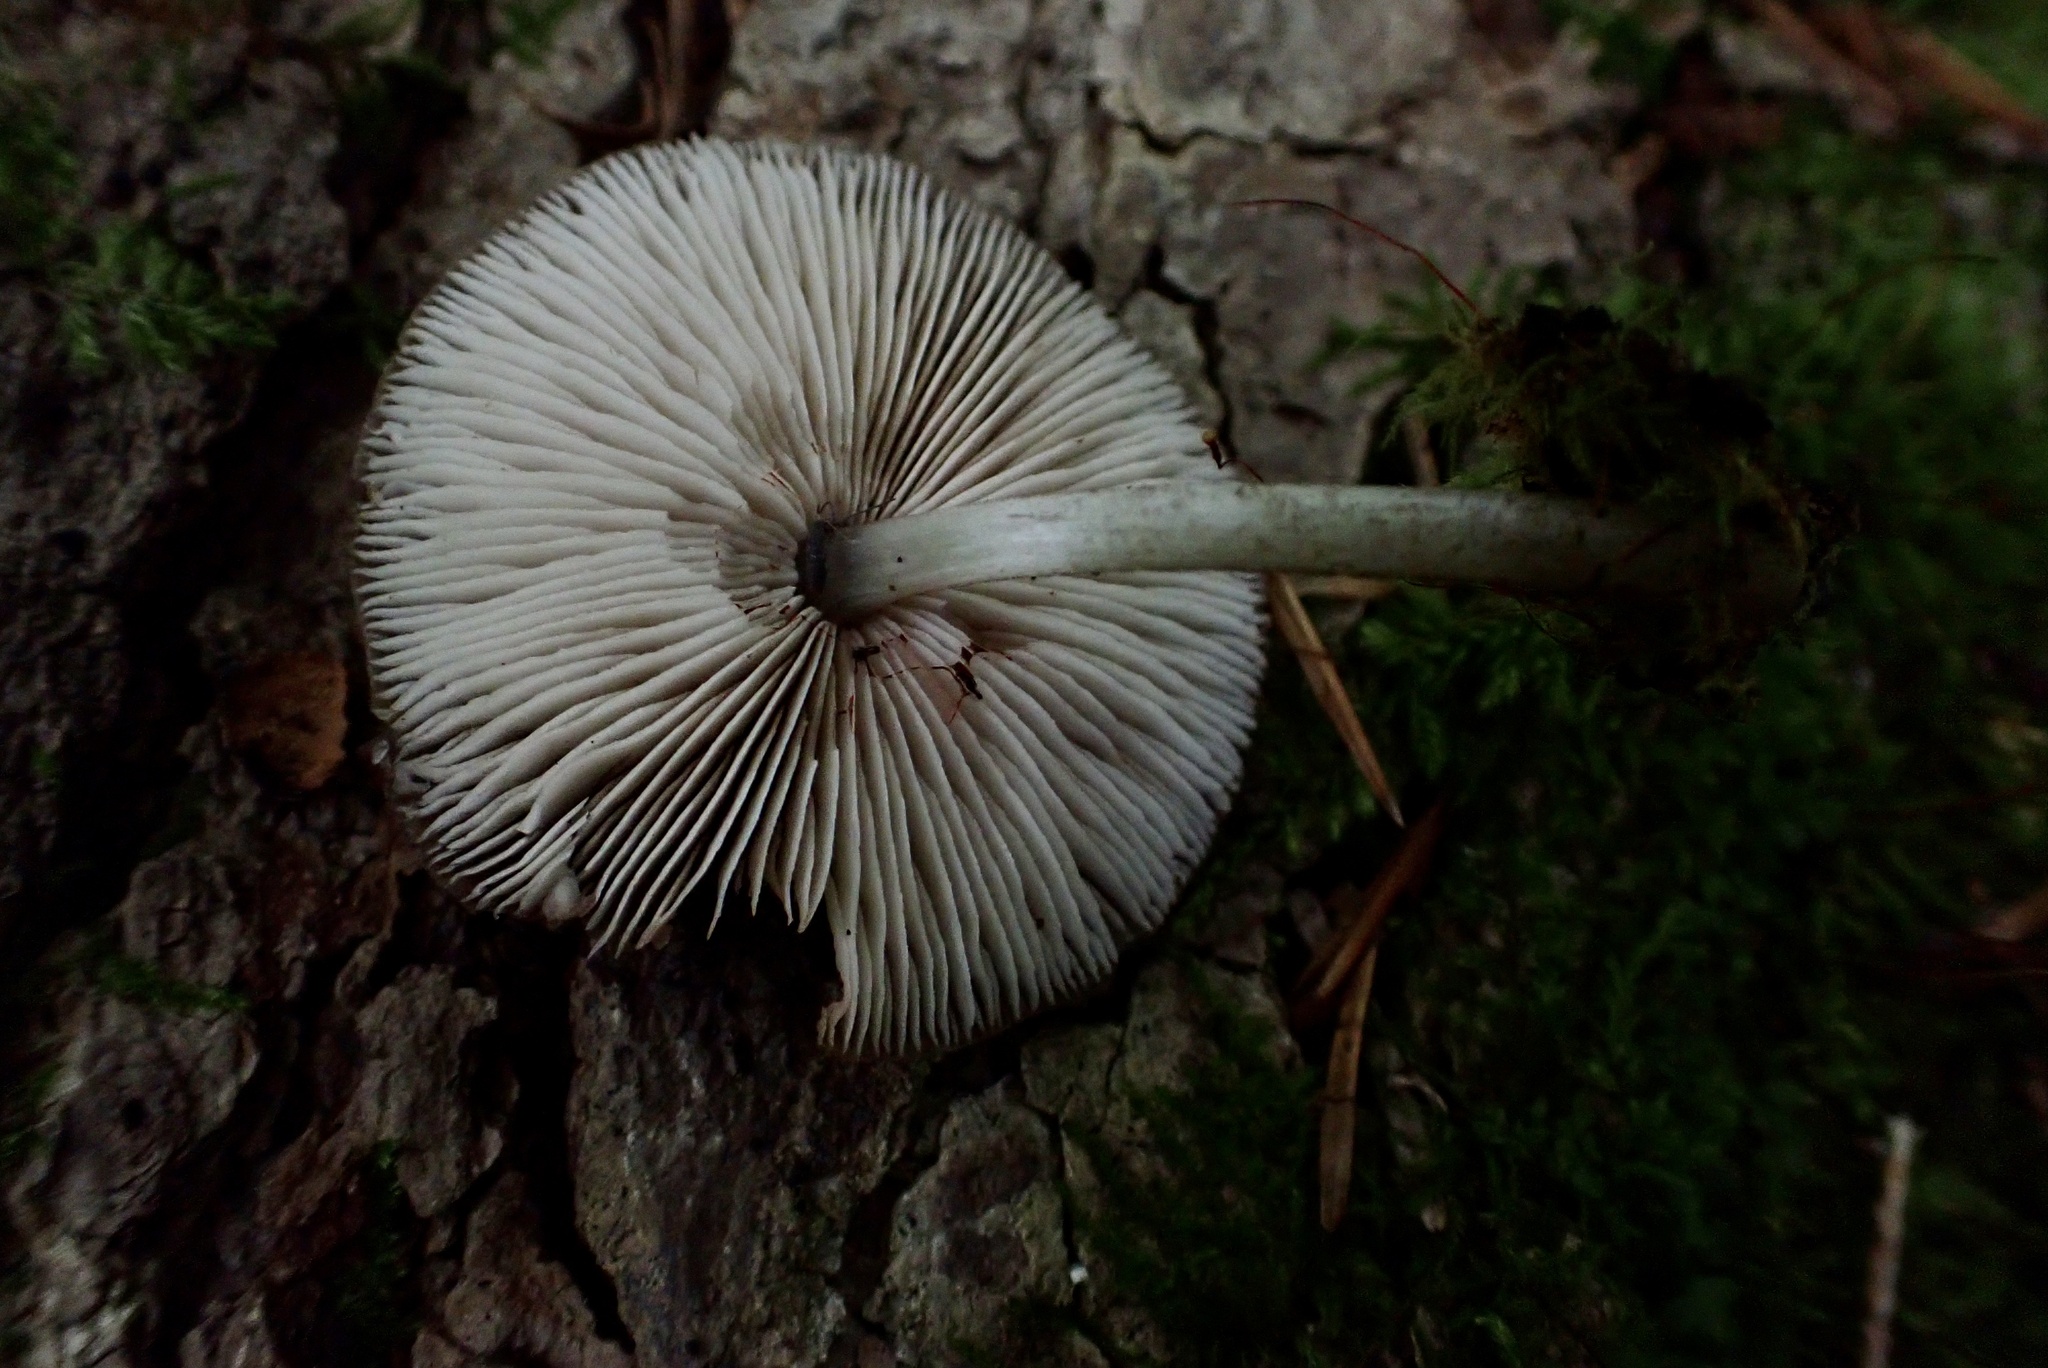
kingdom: Fungi
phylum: Basidiomycota
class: Agaricomycetes
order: Agaricales
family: Pluteaceae
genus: Pluteus
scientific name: Pluteus podospileus
